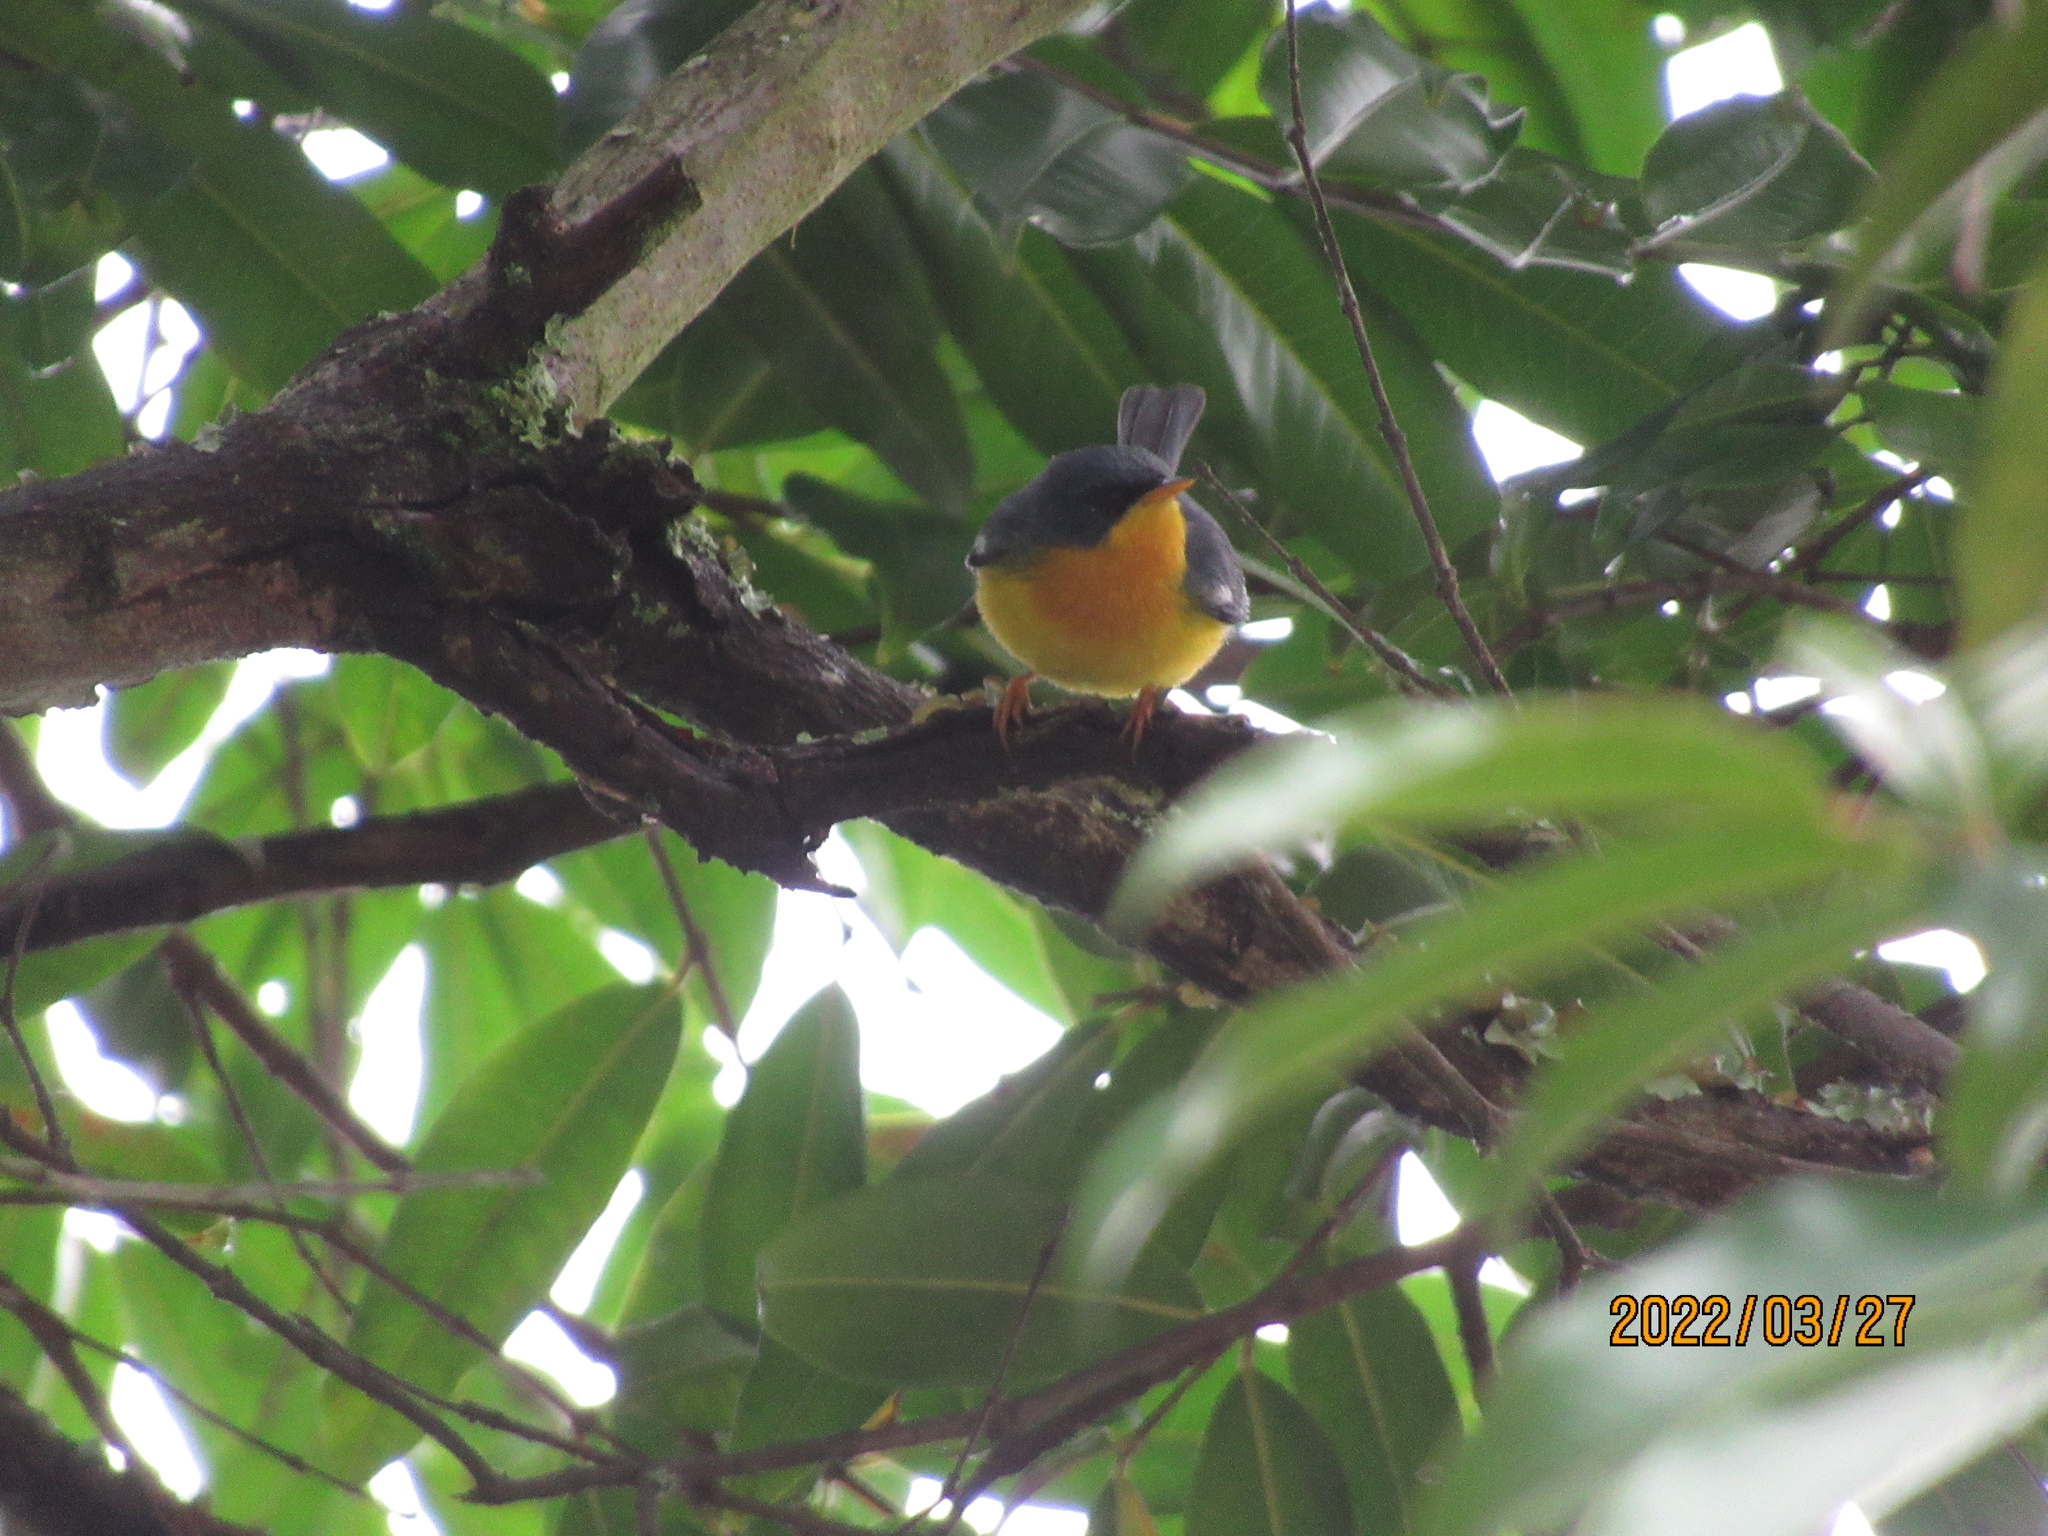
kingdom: Animalia
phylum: Chordata
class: Aves
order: Passeriformes
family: Parulidae
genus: Setophaga
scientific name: Setophaga pitiayumi
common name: Tropical parula
